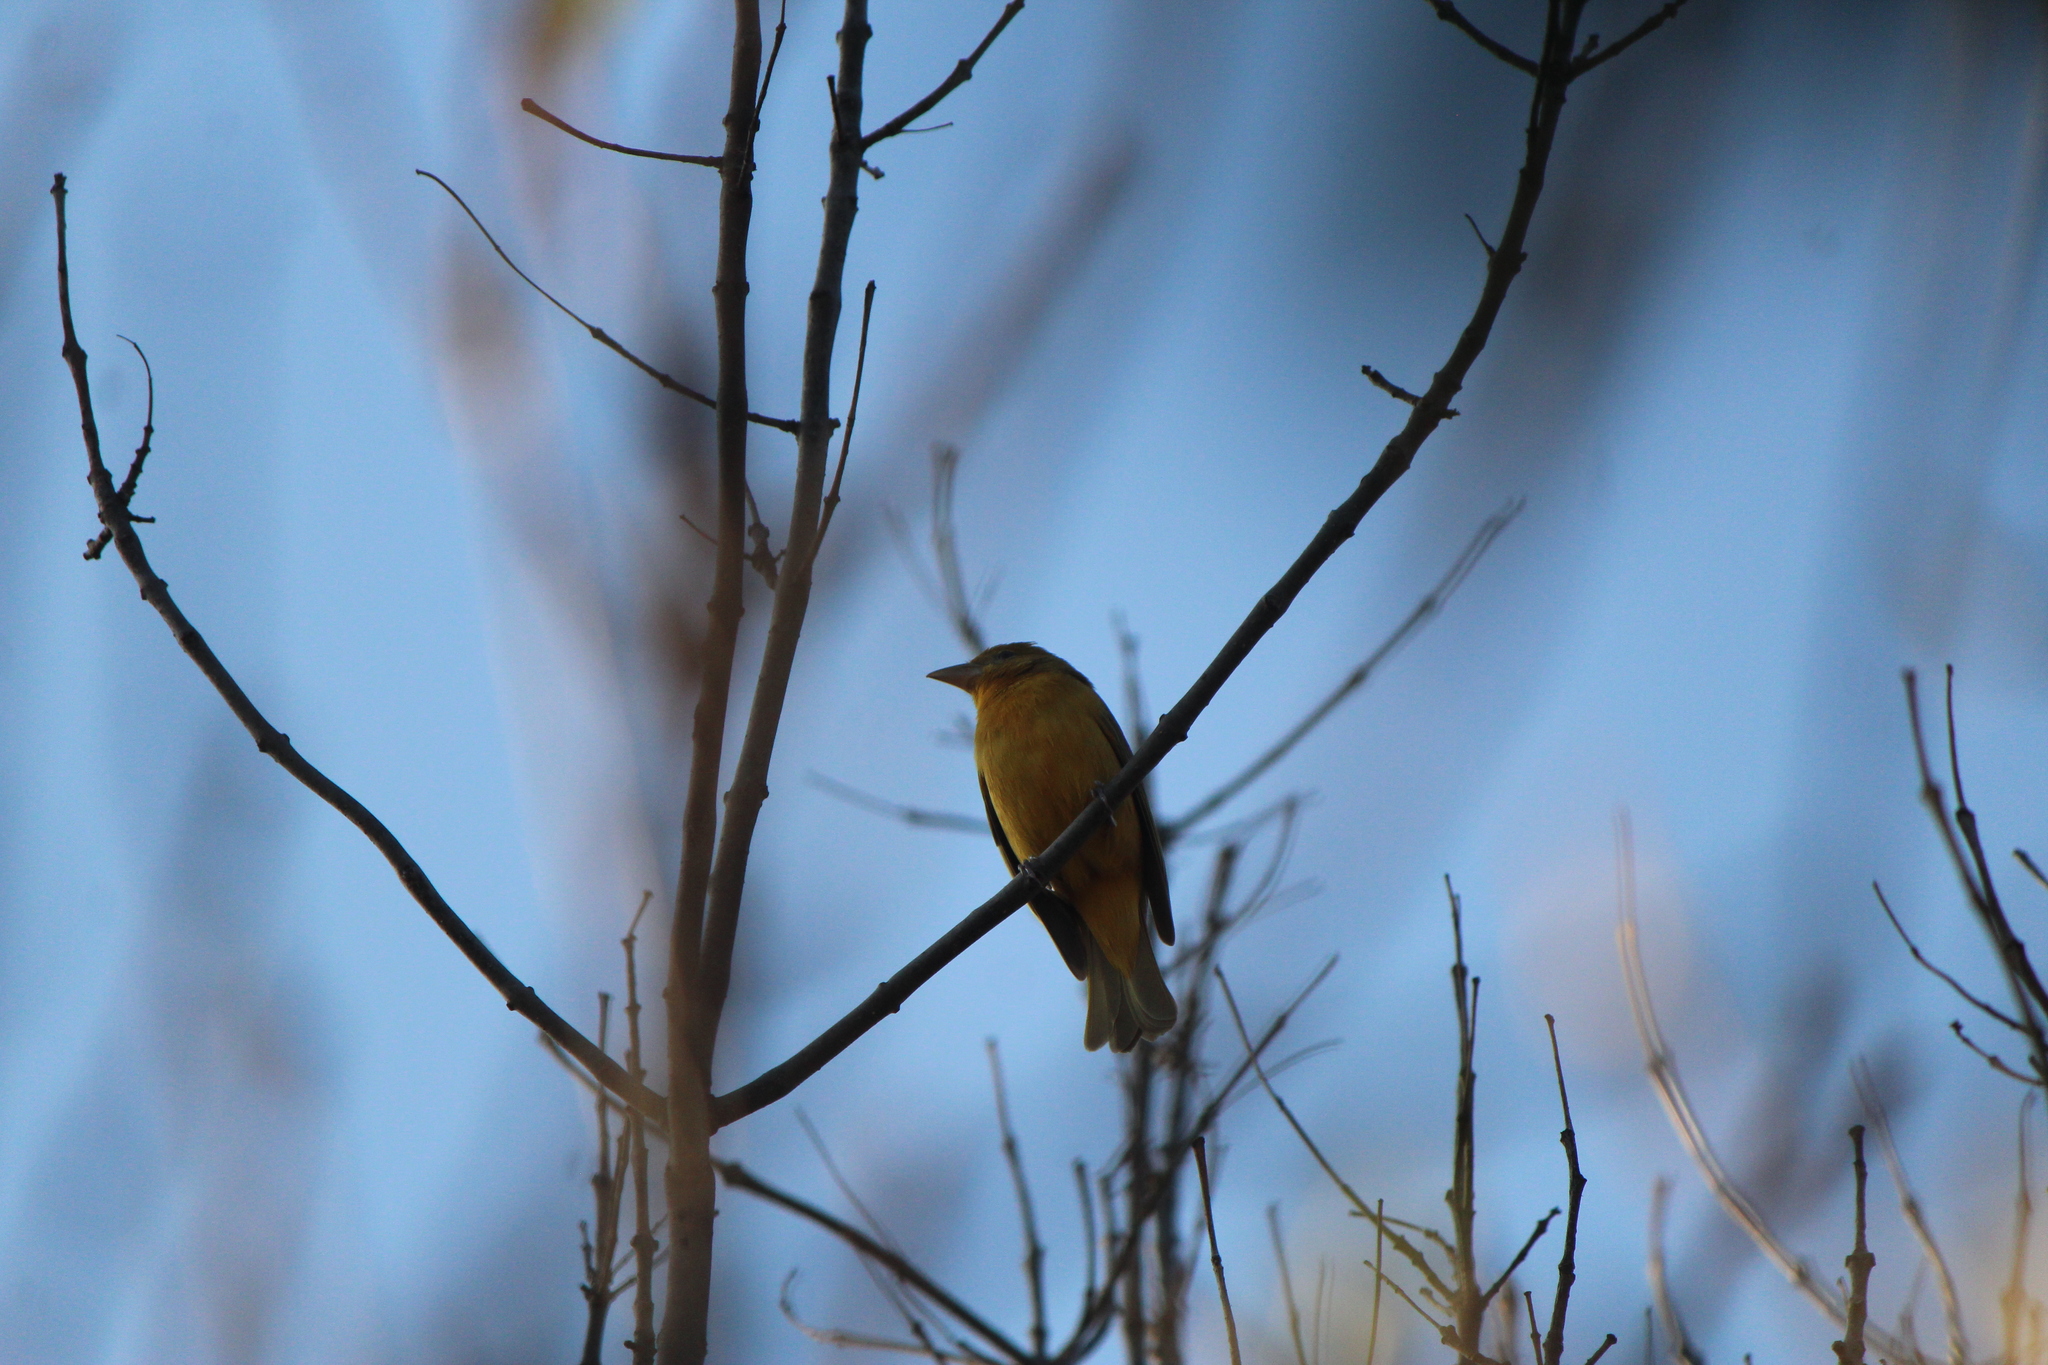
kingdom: Animalia
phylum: Chordata
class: Aves
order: Passeriformes
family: Cardinalidae
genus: Piranga
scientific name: Piranga rubra
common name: Summer tanager
